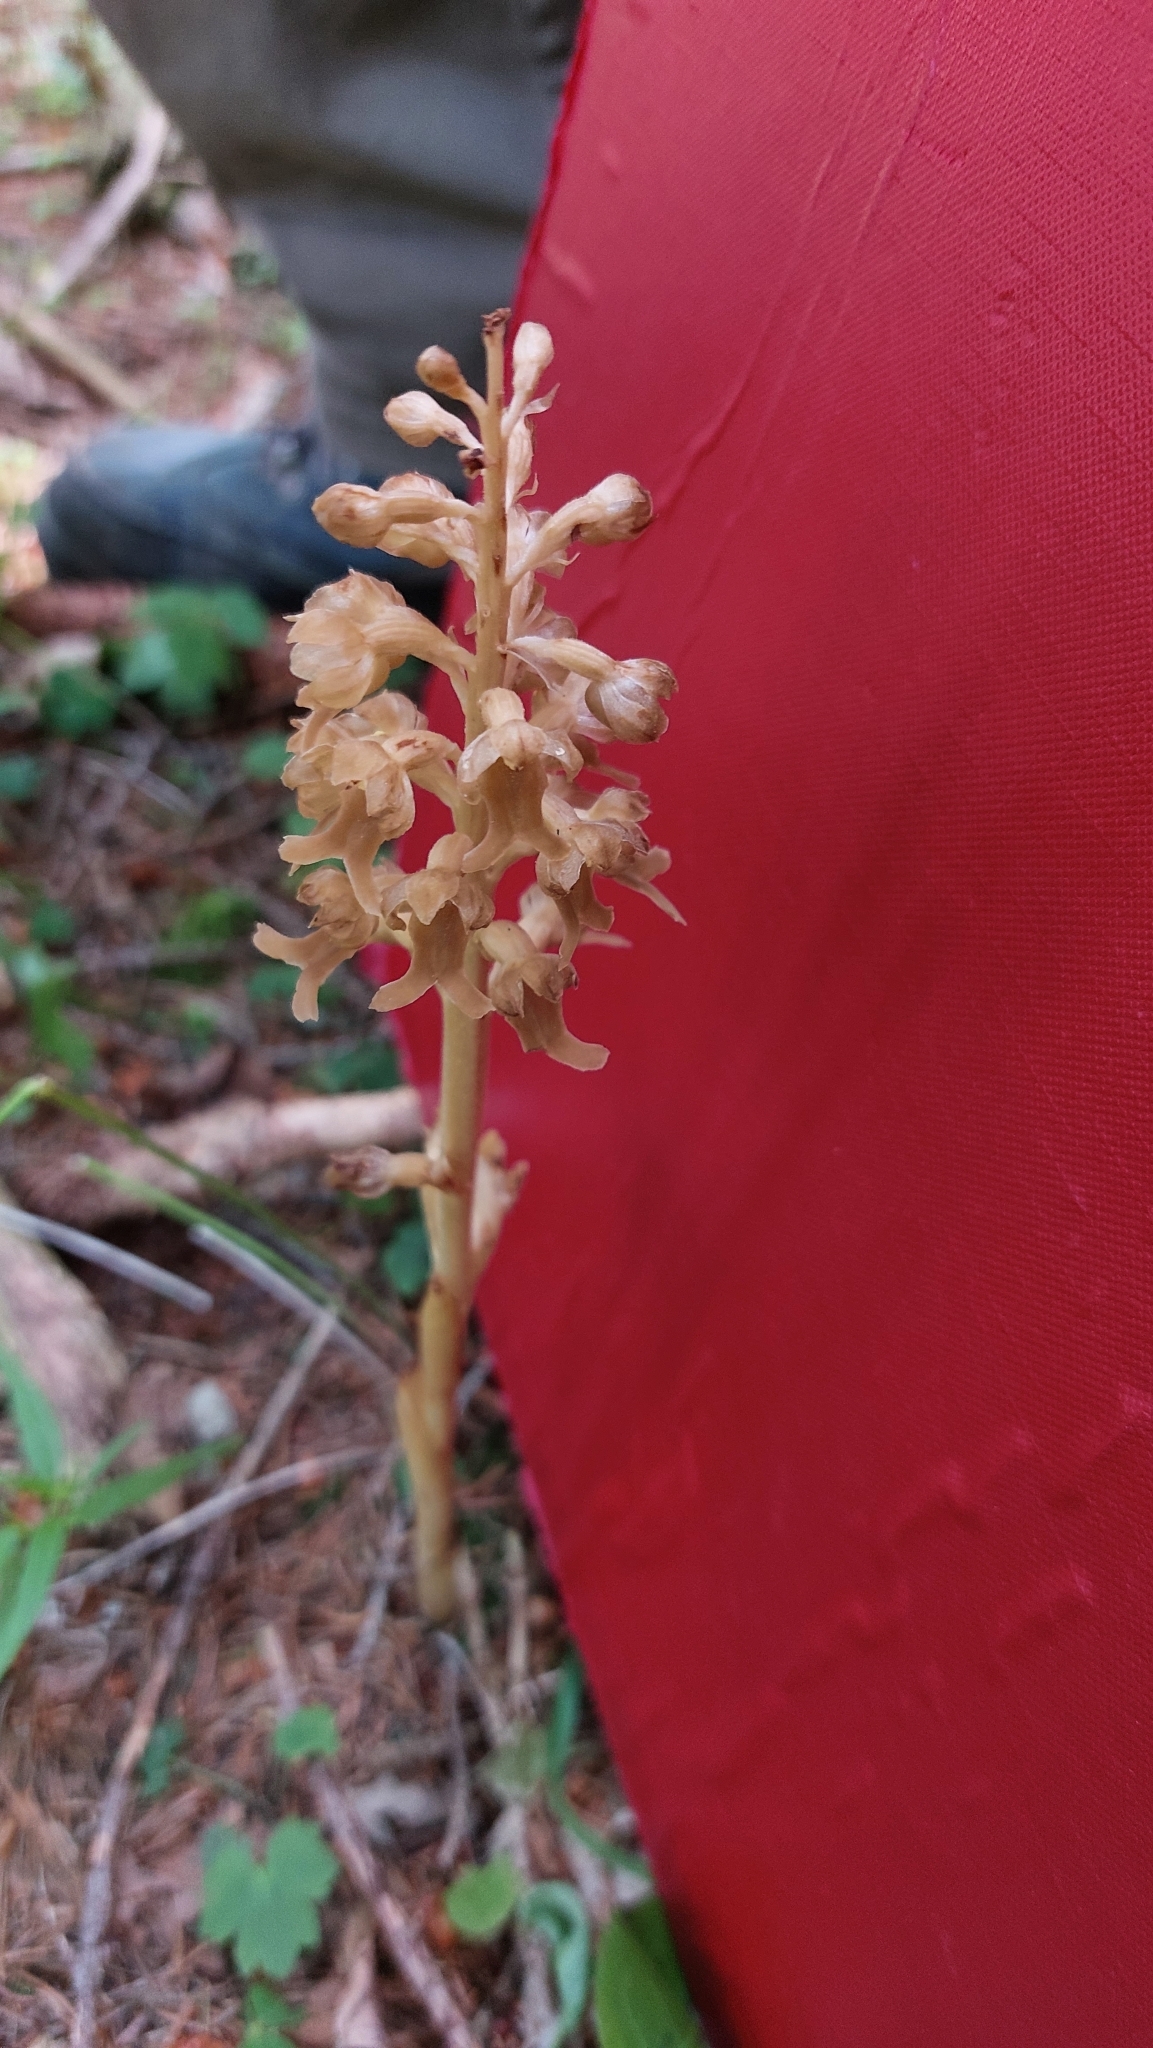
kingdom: Plantae
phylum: Tracheophyta
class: Liliopsida
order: Asparagales
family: Orchidaceae
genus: Neottia
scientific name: Neottia nidus-avis
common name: Bird's-nest orchid
